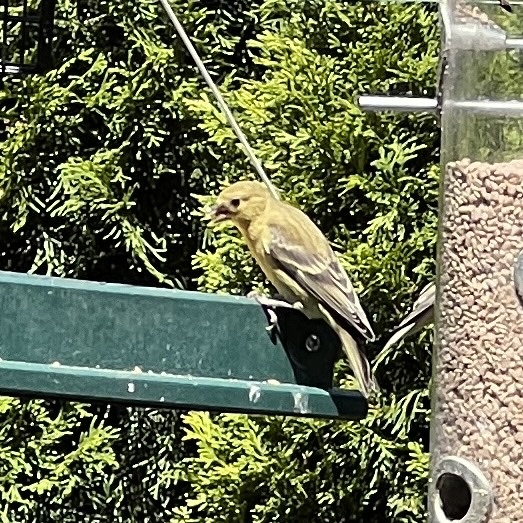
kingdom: Animalia
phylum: Chordata
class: Aves
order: Passeriformes
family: Fringillidae
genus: Spinus
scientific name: Spinus psaltria
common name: Lesser goldfinch
